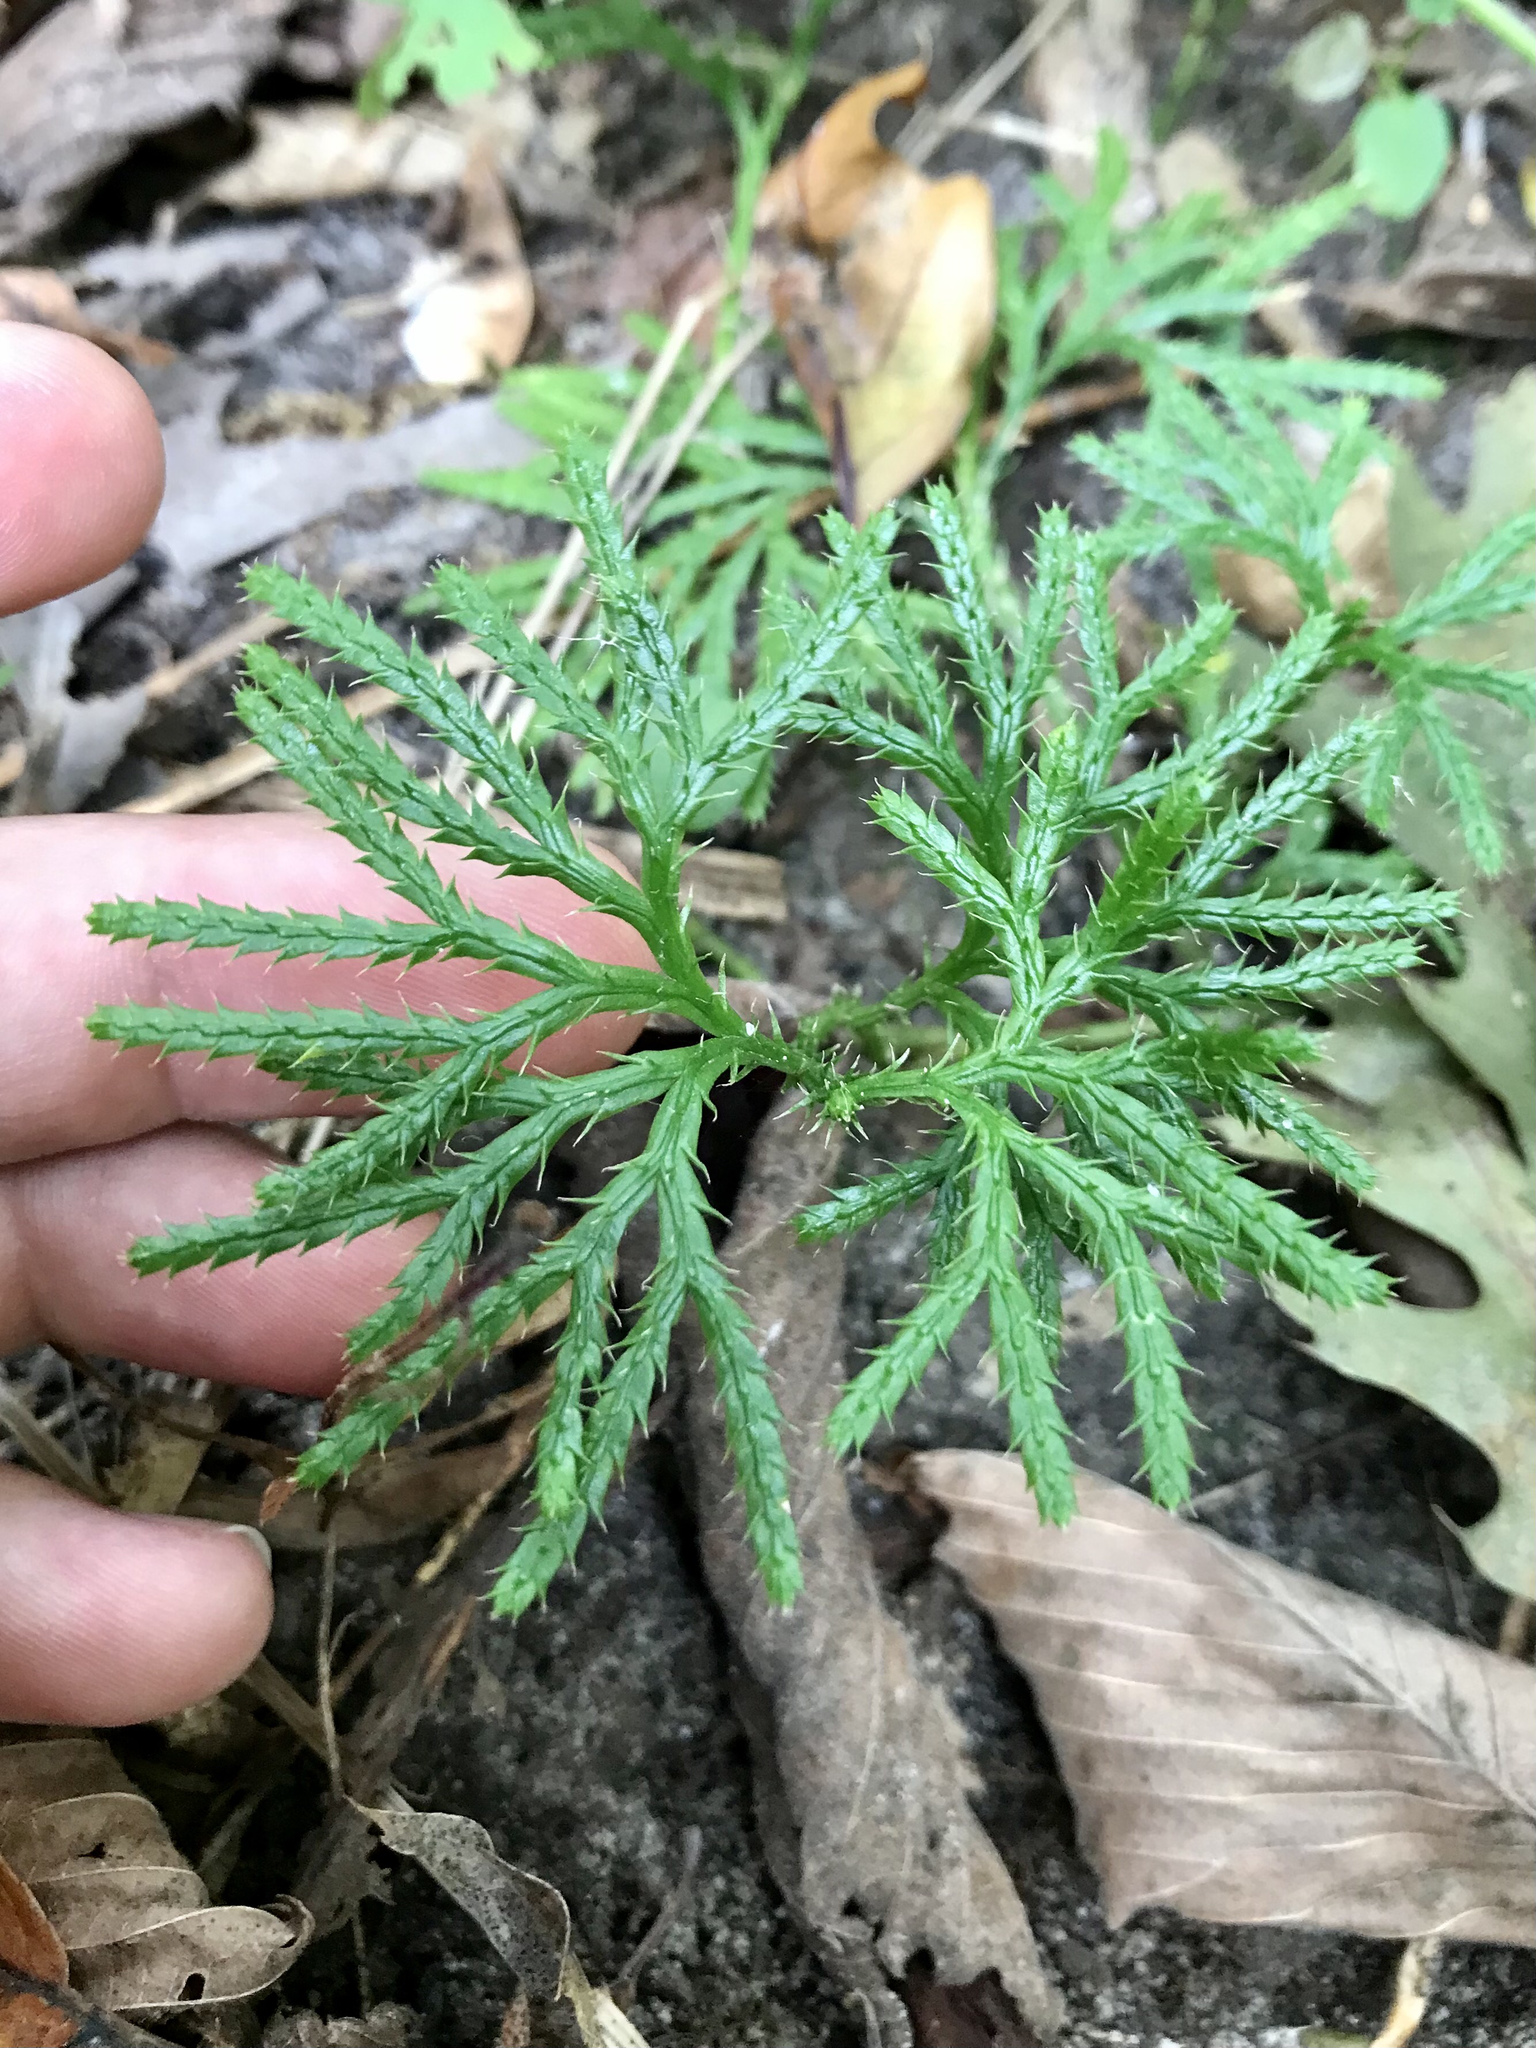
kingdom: Plantae
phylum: Tracheophyta
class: Lycopodiopsida
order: Lycopodiales
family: Lycopodiaceae
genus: Diphasiastrum
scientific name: Diphasiastrum digitatum
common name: Southern running-pine
